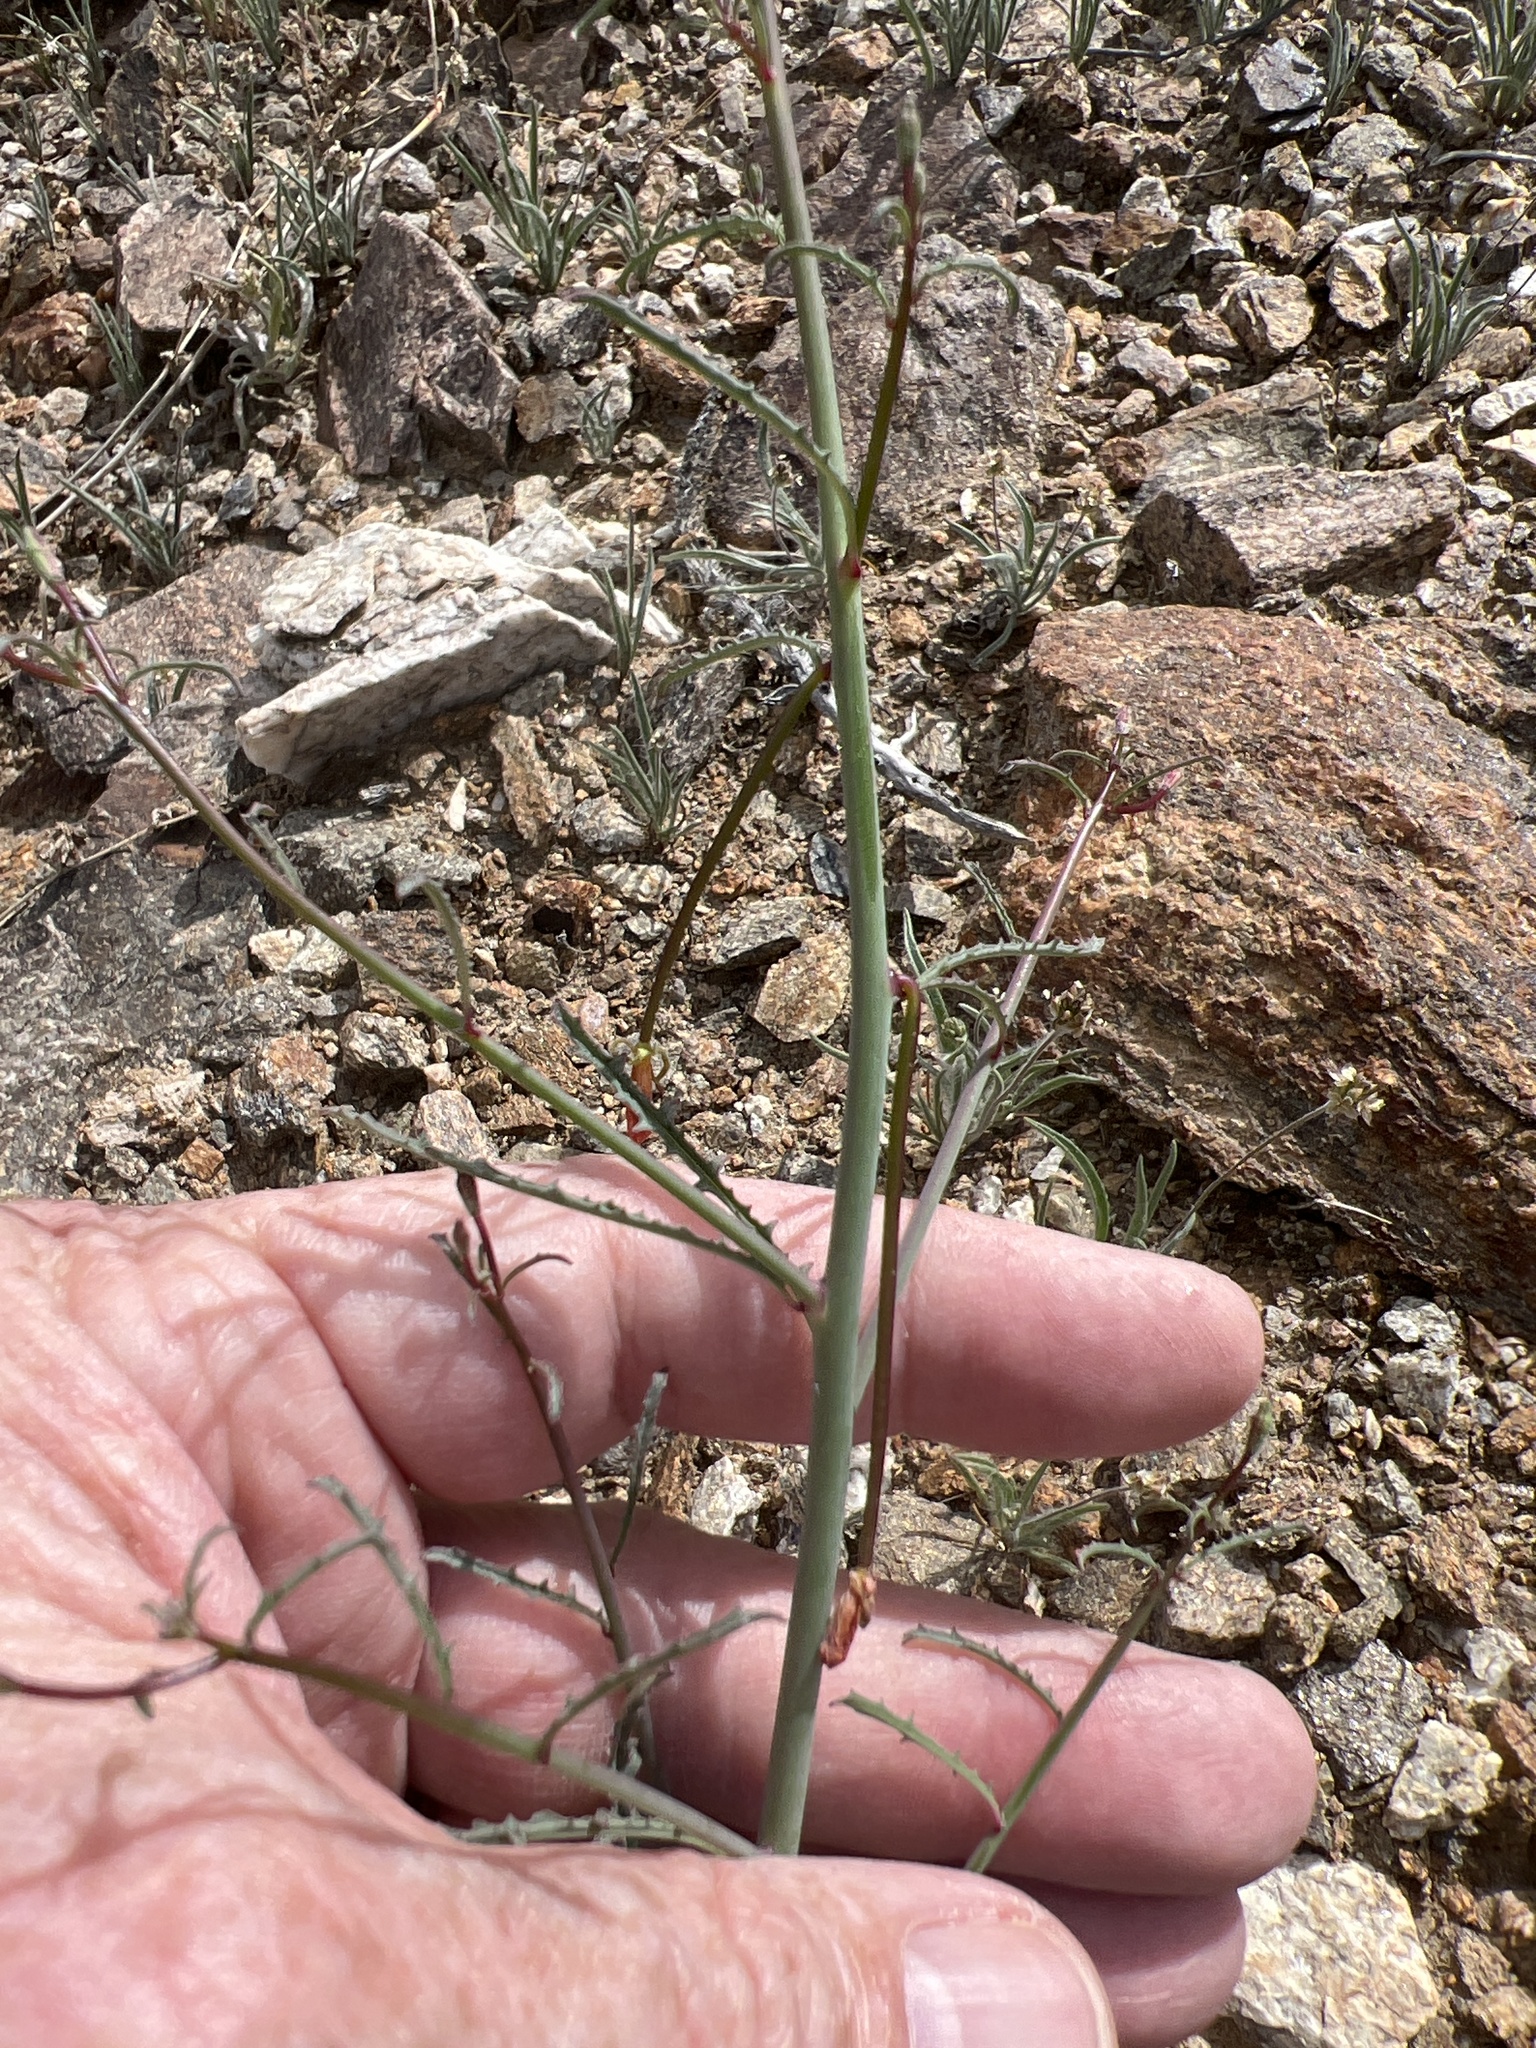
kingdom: Plantae
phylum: Tracheophyta
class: Magnoliopsida
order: Myrtales
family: Onagraceae
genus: Eulobus
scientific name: Eulobus californicus
